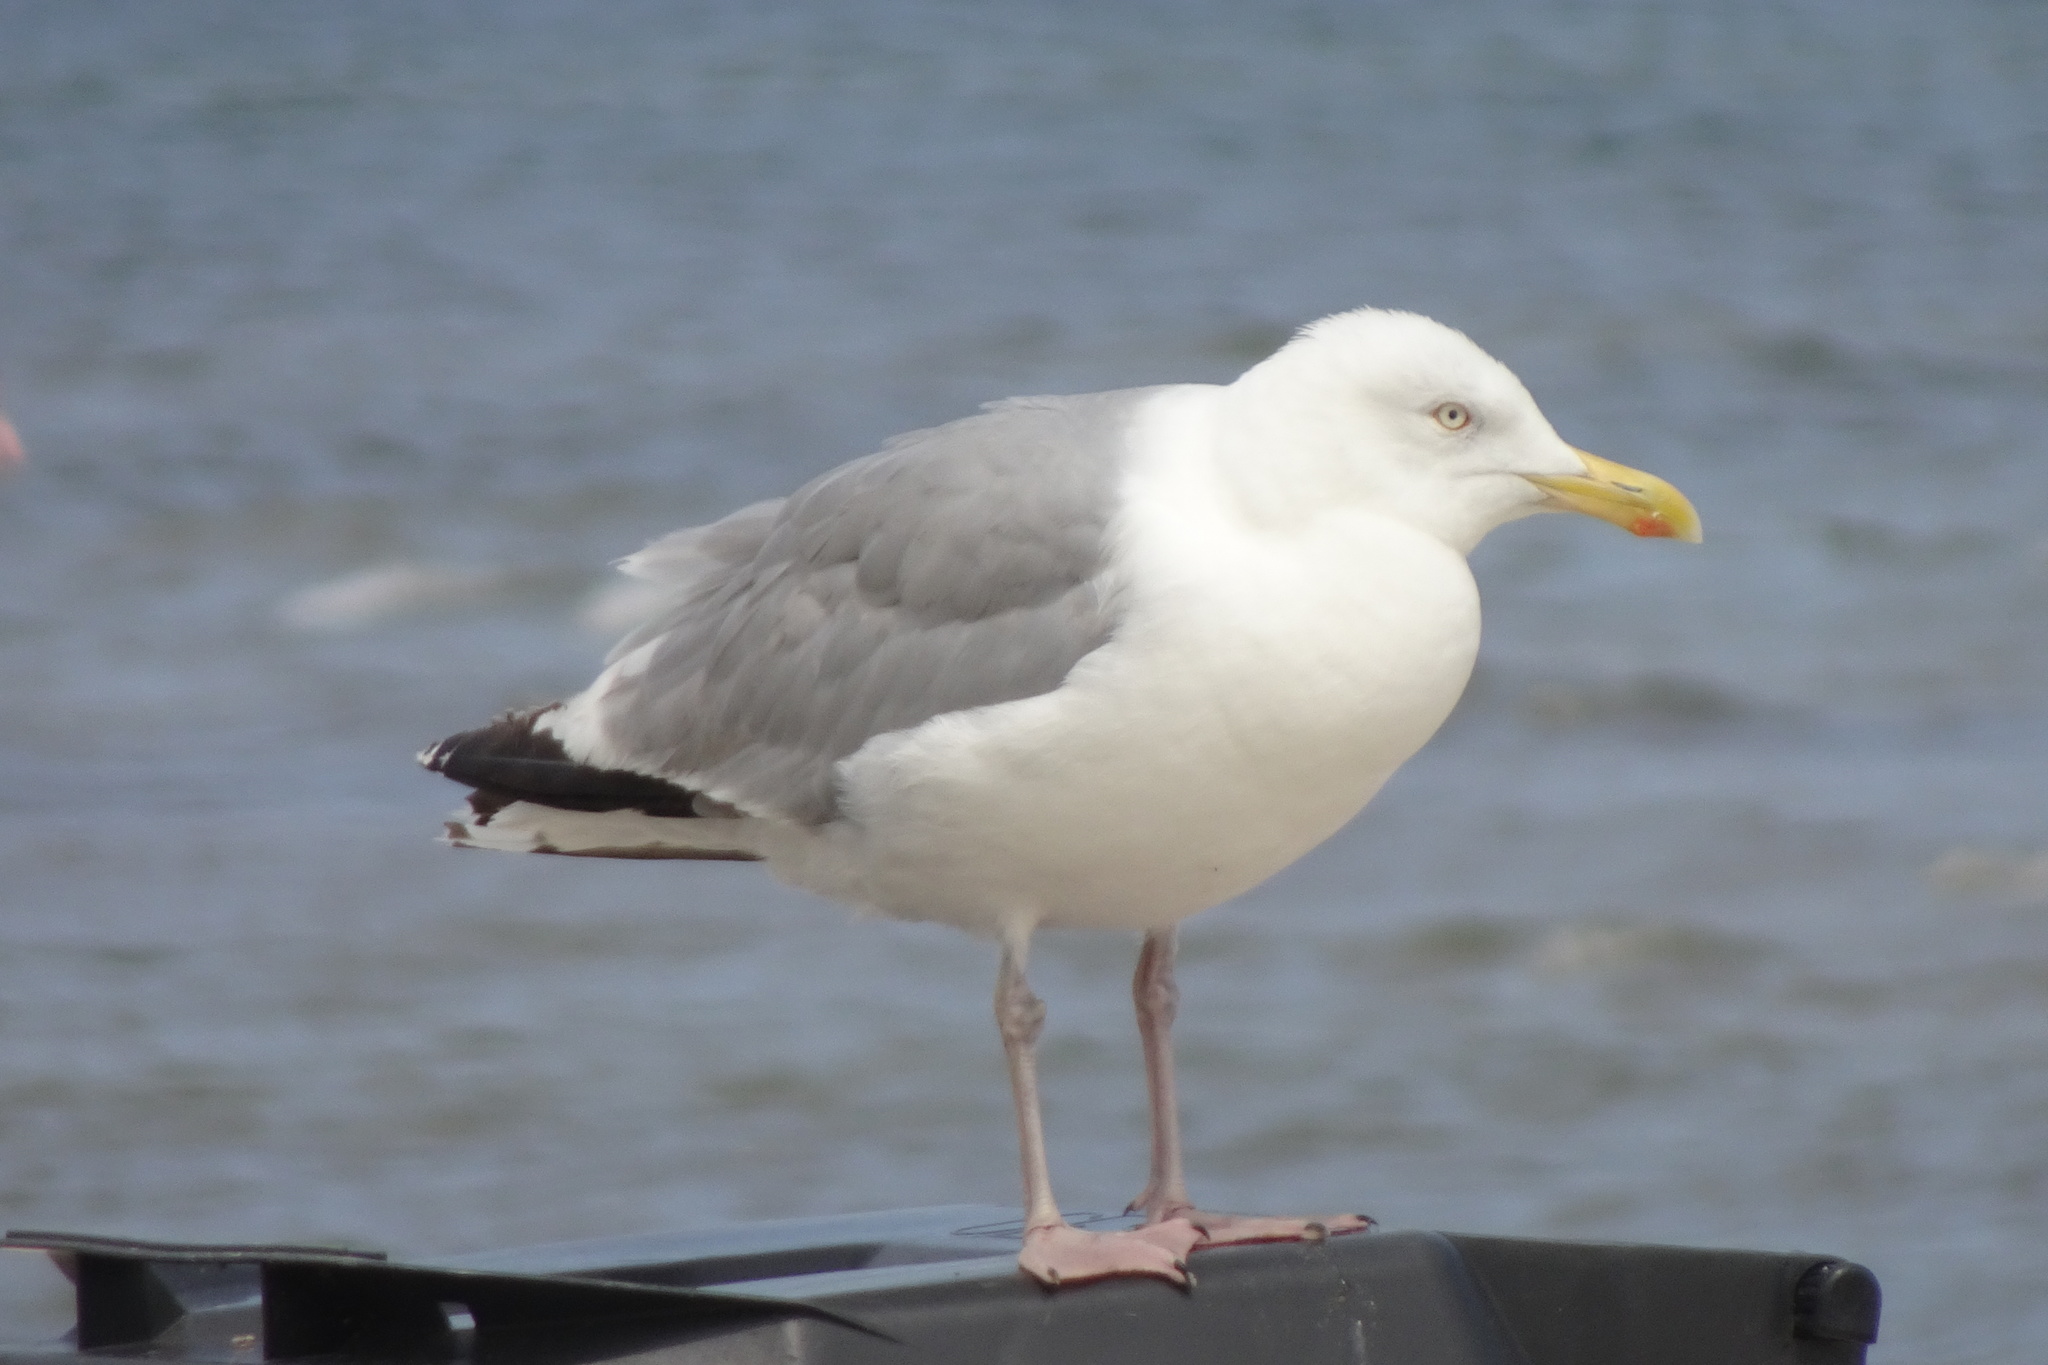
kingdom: Animalia
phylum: Chordata
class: Aves
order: Charadriiformes
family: Laridae
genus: Larus
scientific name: Larus argentatus
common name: Herring gull
